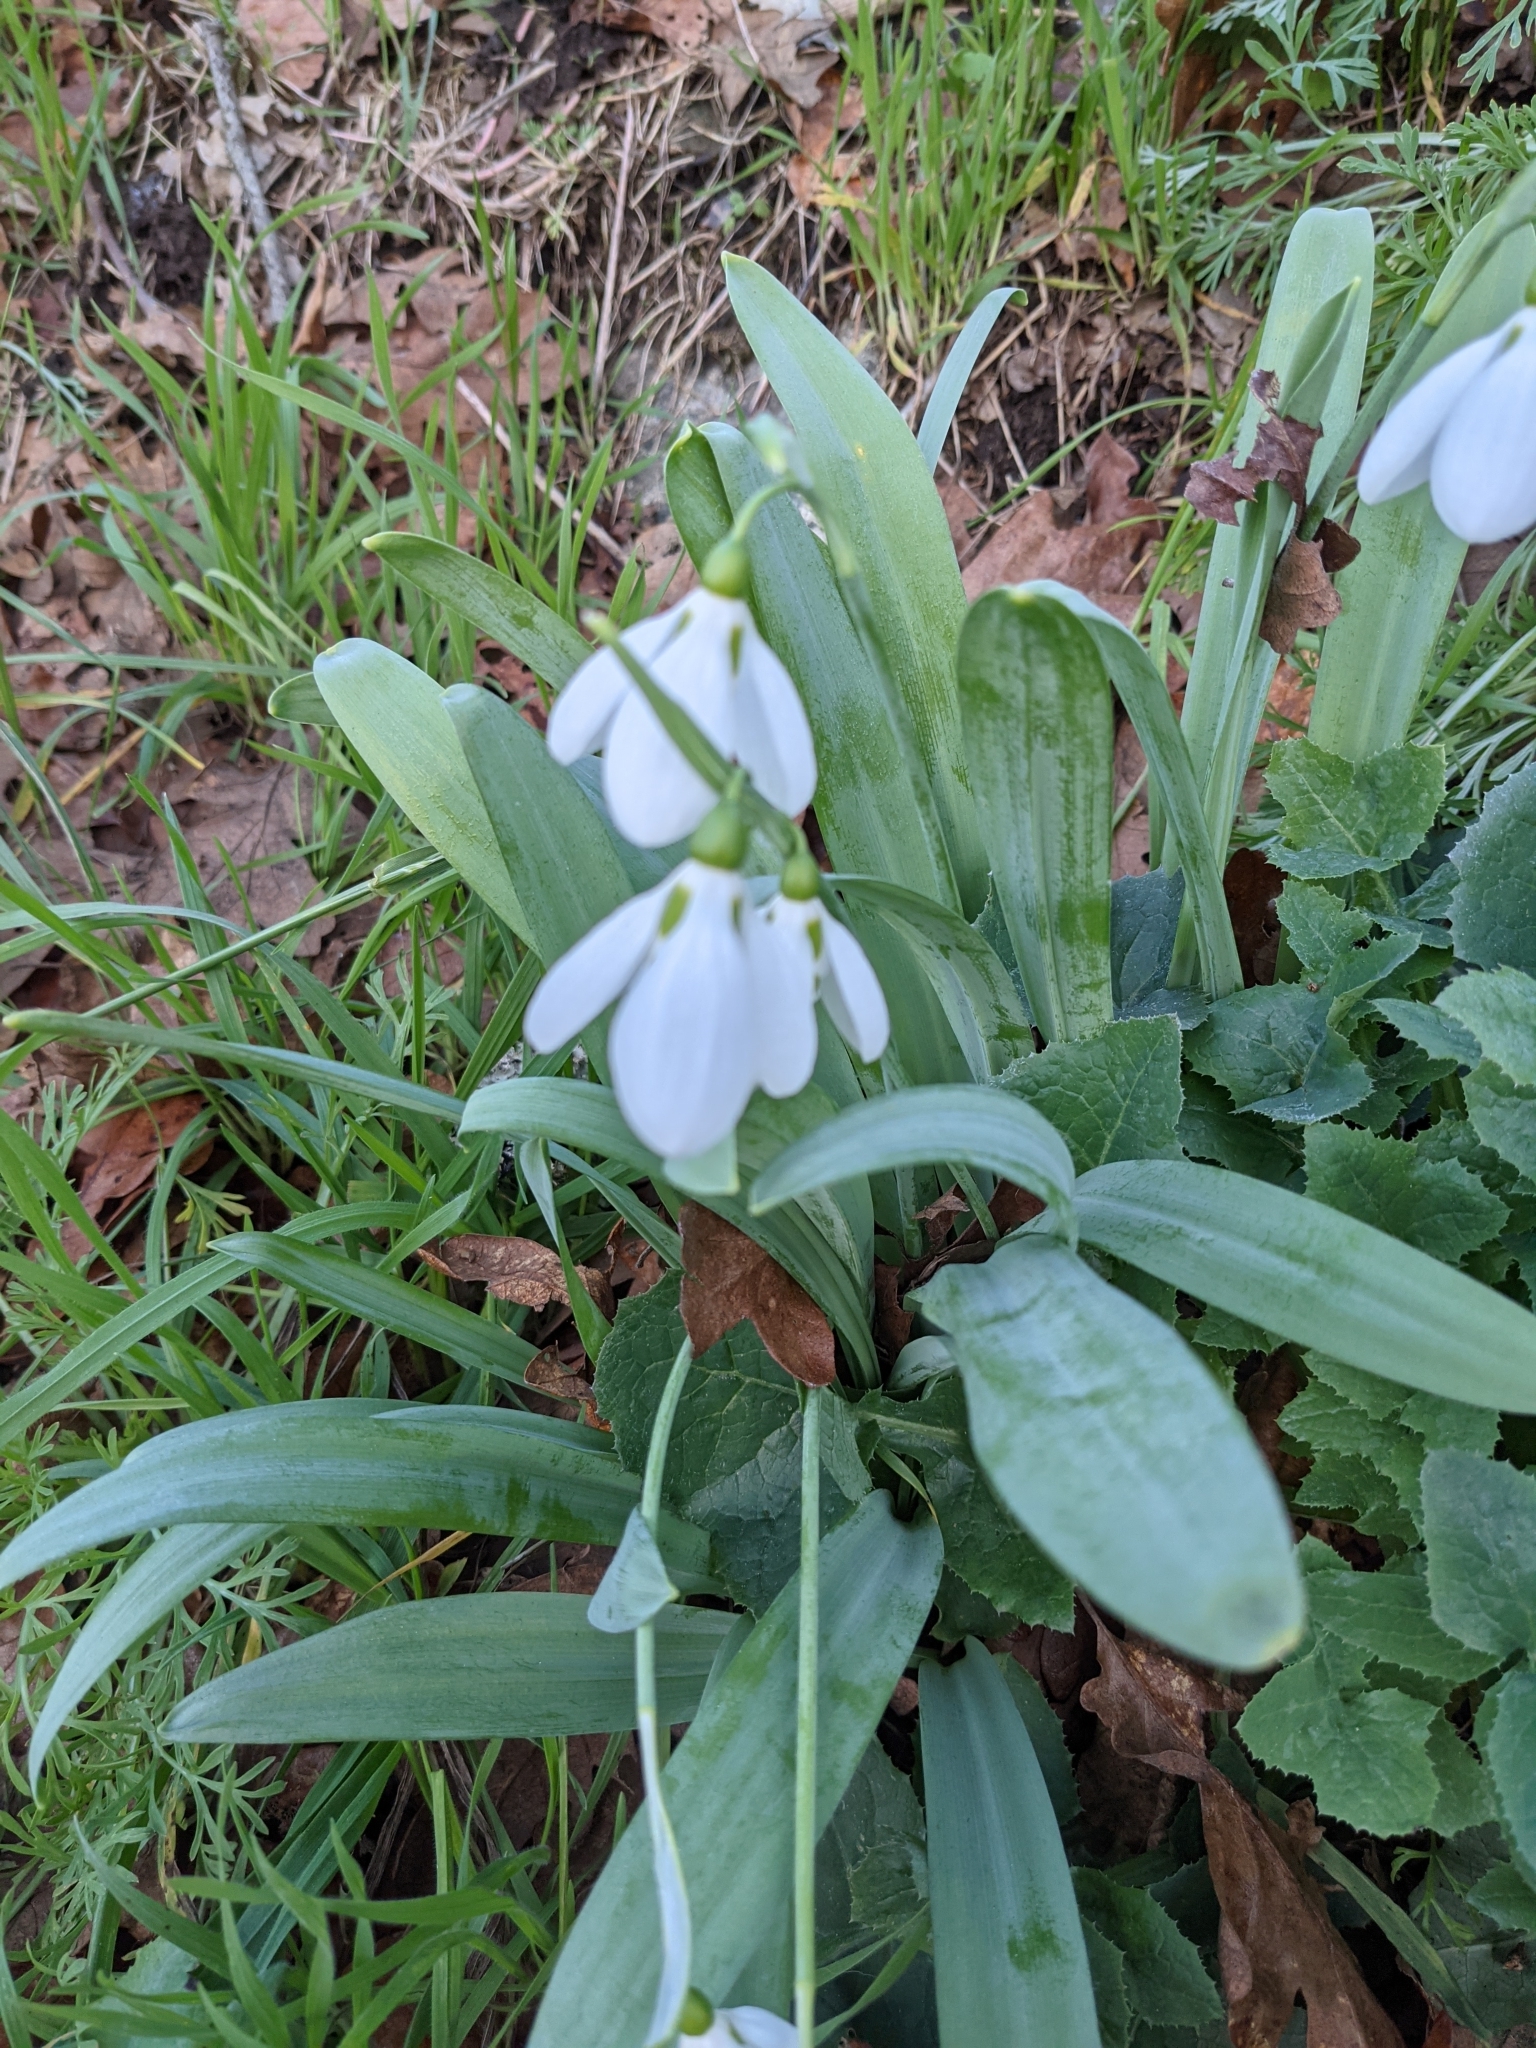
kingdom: Plantae
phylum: Tracheophyta
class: Liliopsida
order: Asparagales
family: Amaryllidaceae
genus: Galanthus
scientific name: Galanthus elwesii
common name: Greater snowdrop
